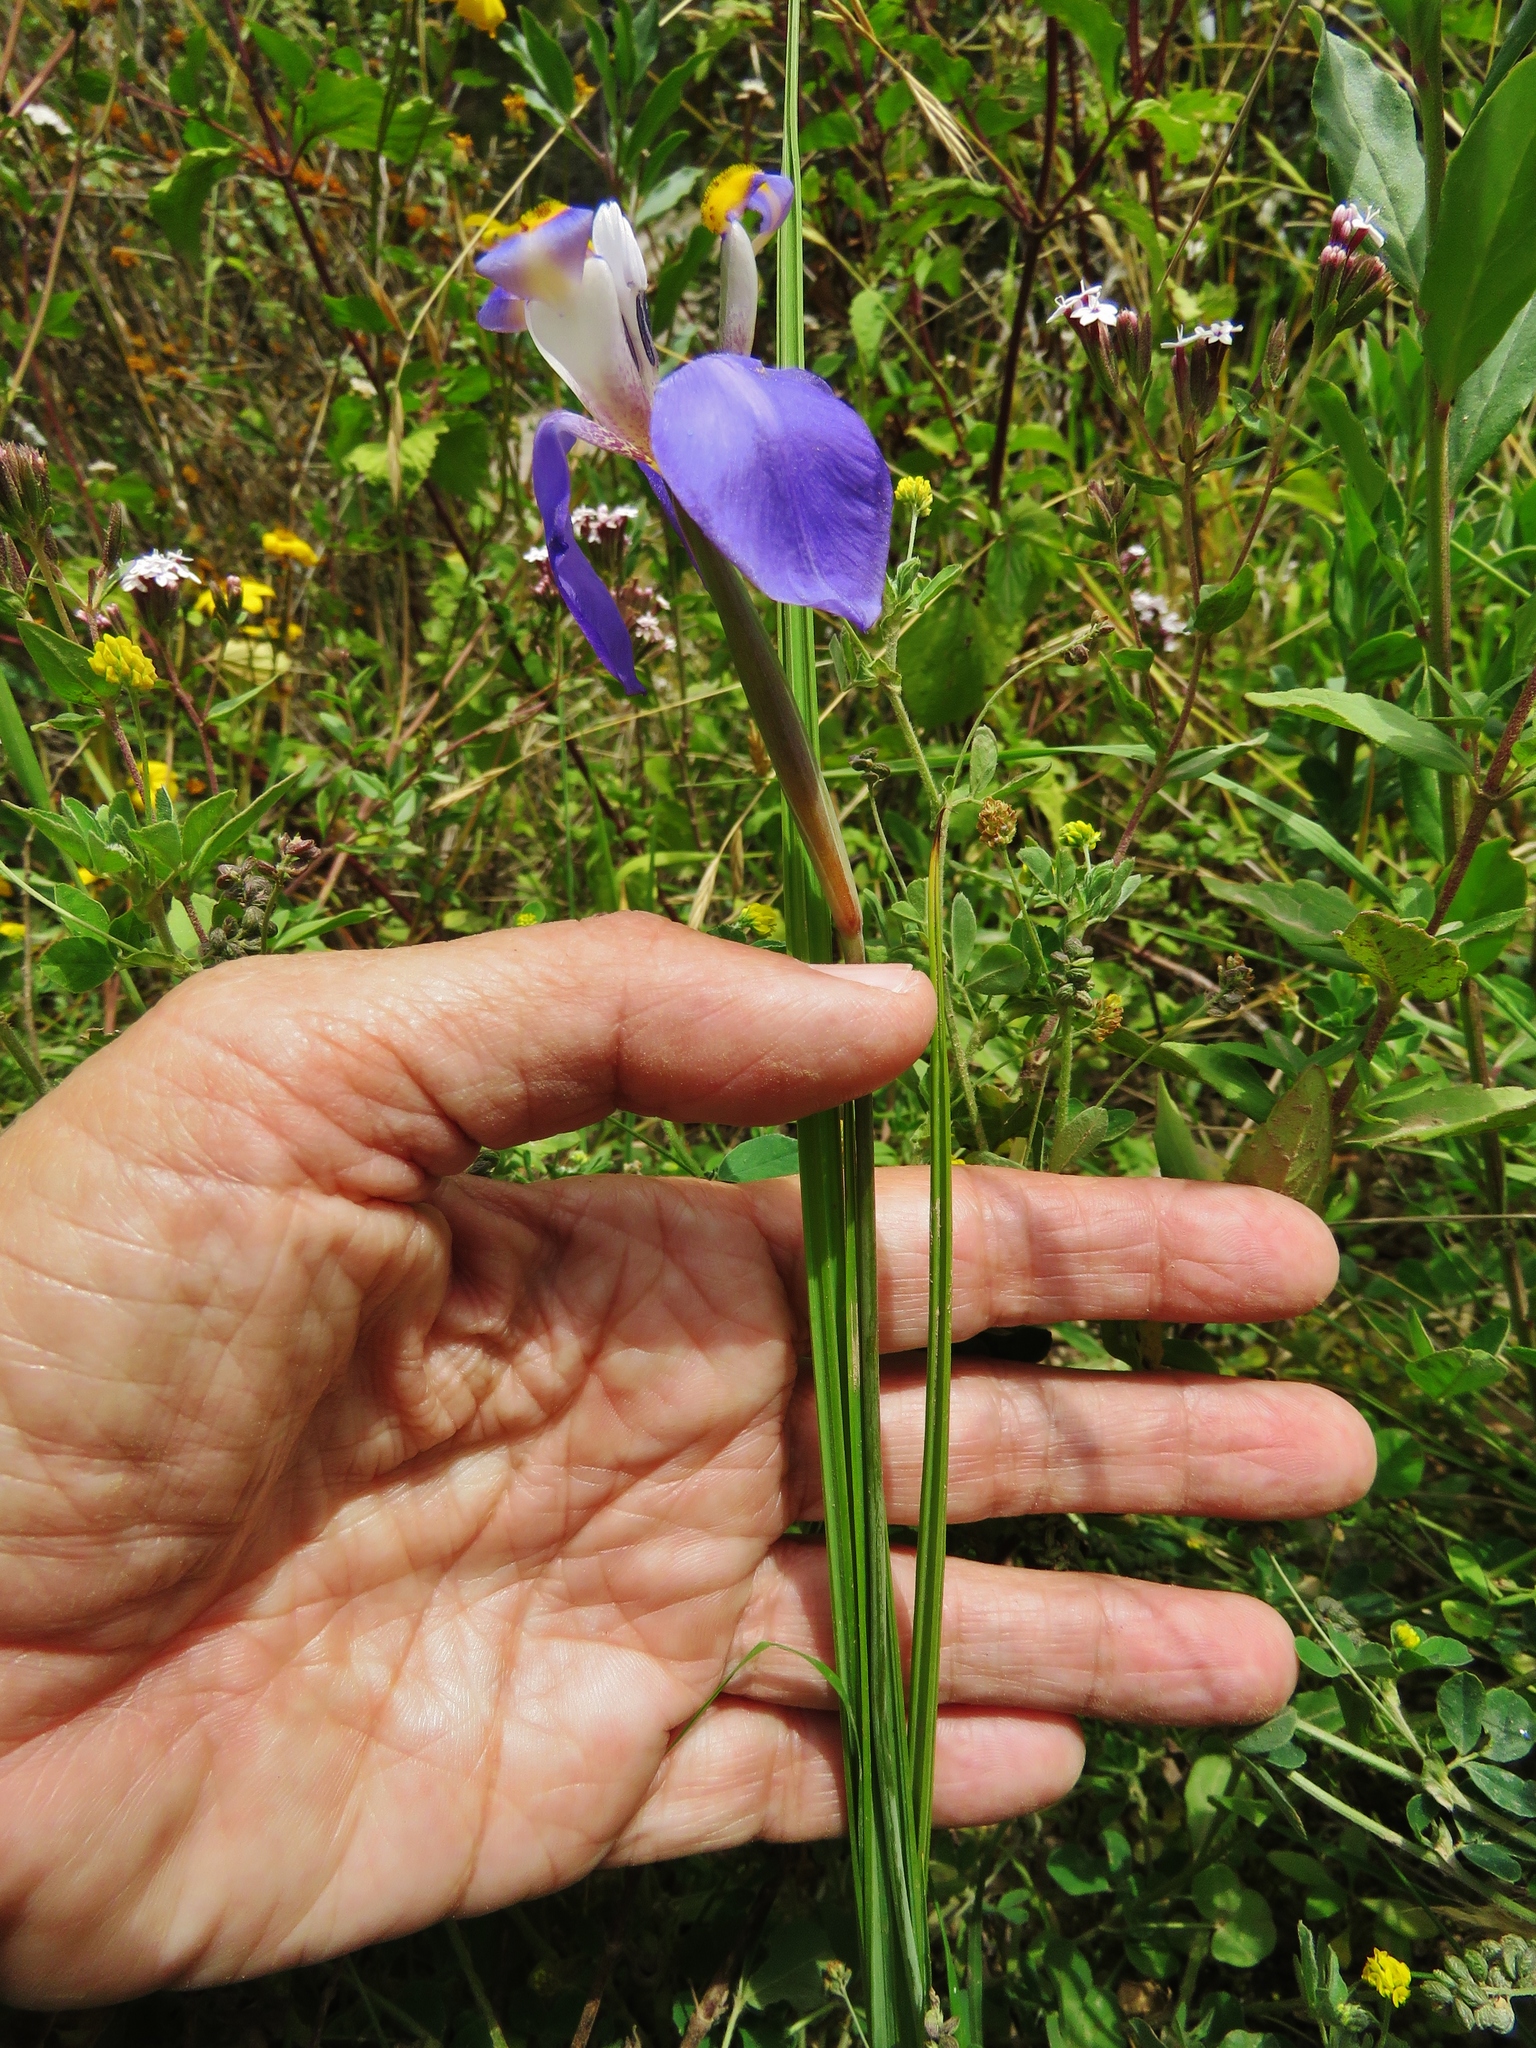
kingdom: Plantae
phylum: Tracheophyta
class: Liliopsida
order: Asparagales
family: Iridaceae
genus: Hesperoxiphion
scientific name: Hesperoxiphion herrerae
